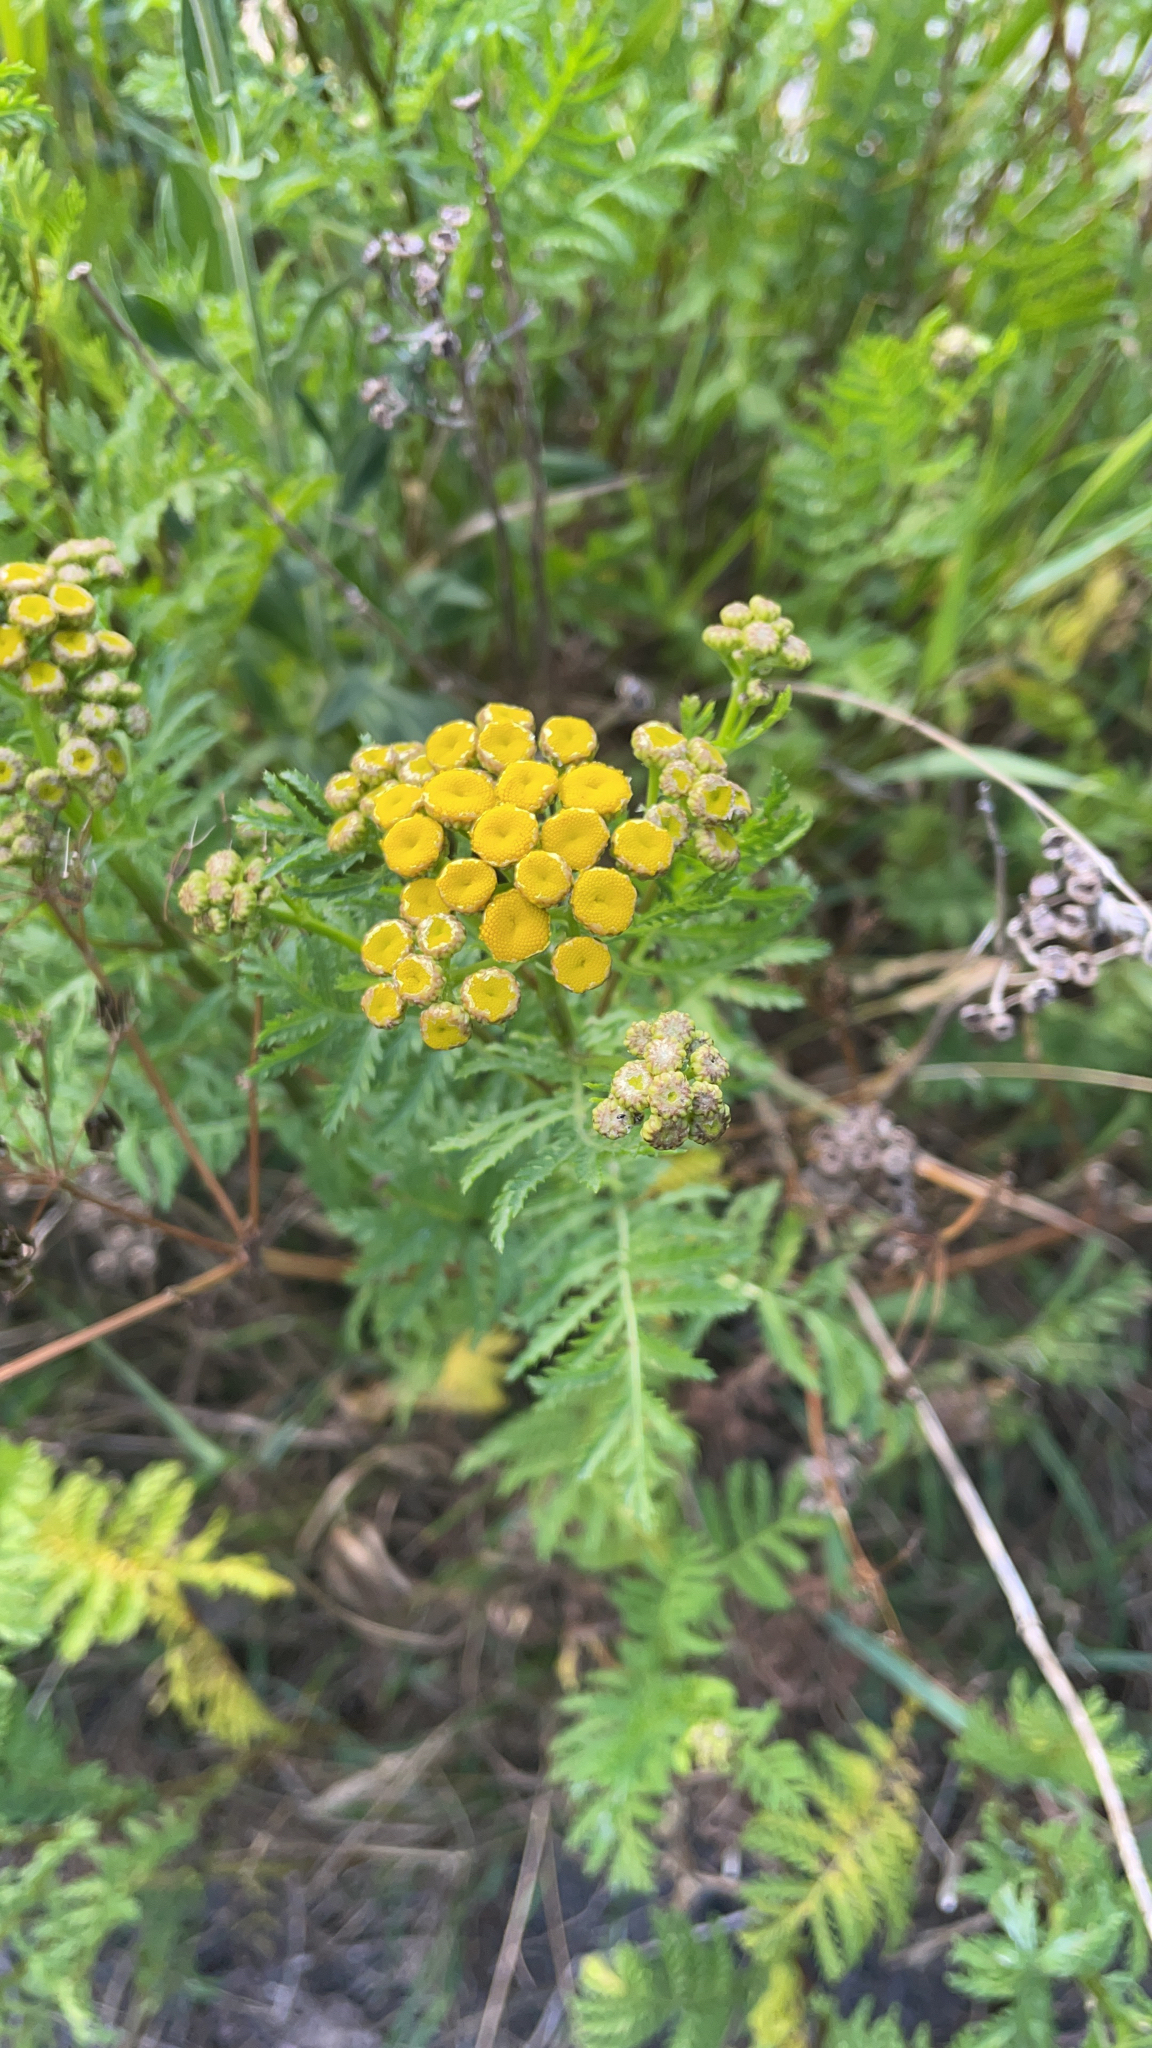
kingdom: Plantae
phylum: Tracheophyta
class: Magnoliopsida
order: Asterales
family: Asteraceae
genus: Tanacetum
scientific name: Tanacetum vulgare
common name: Common tansy
